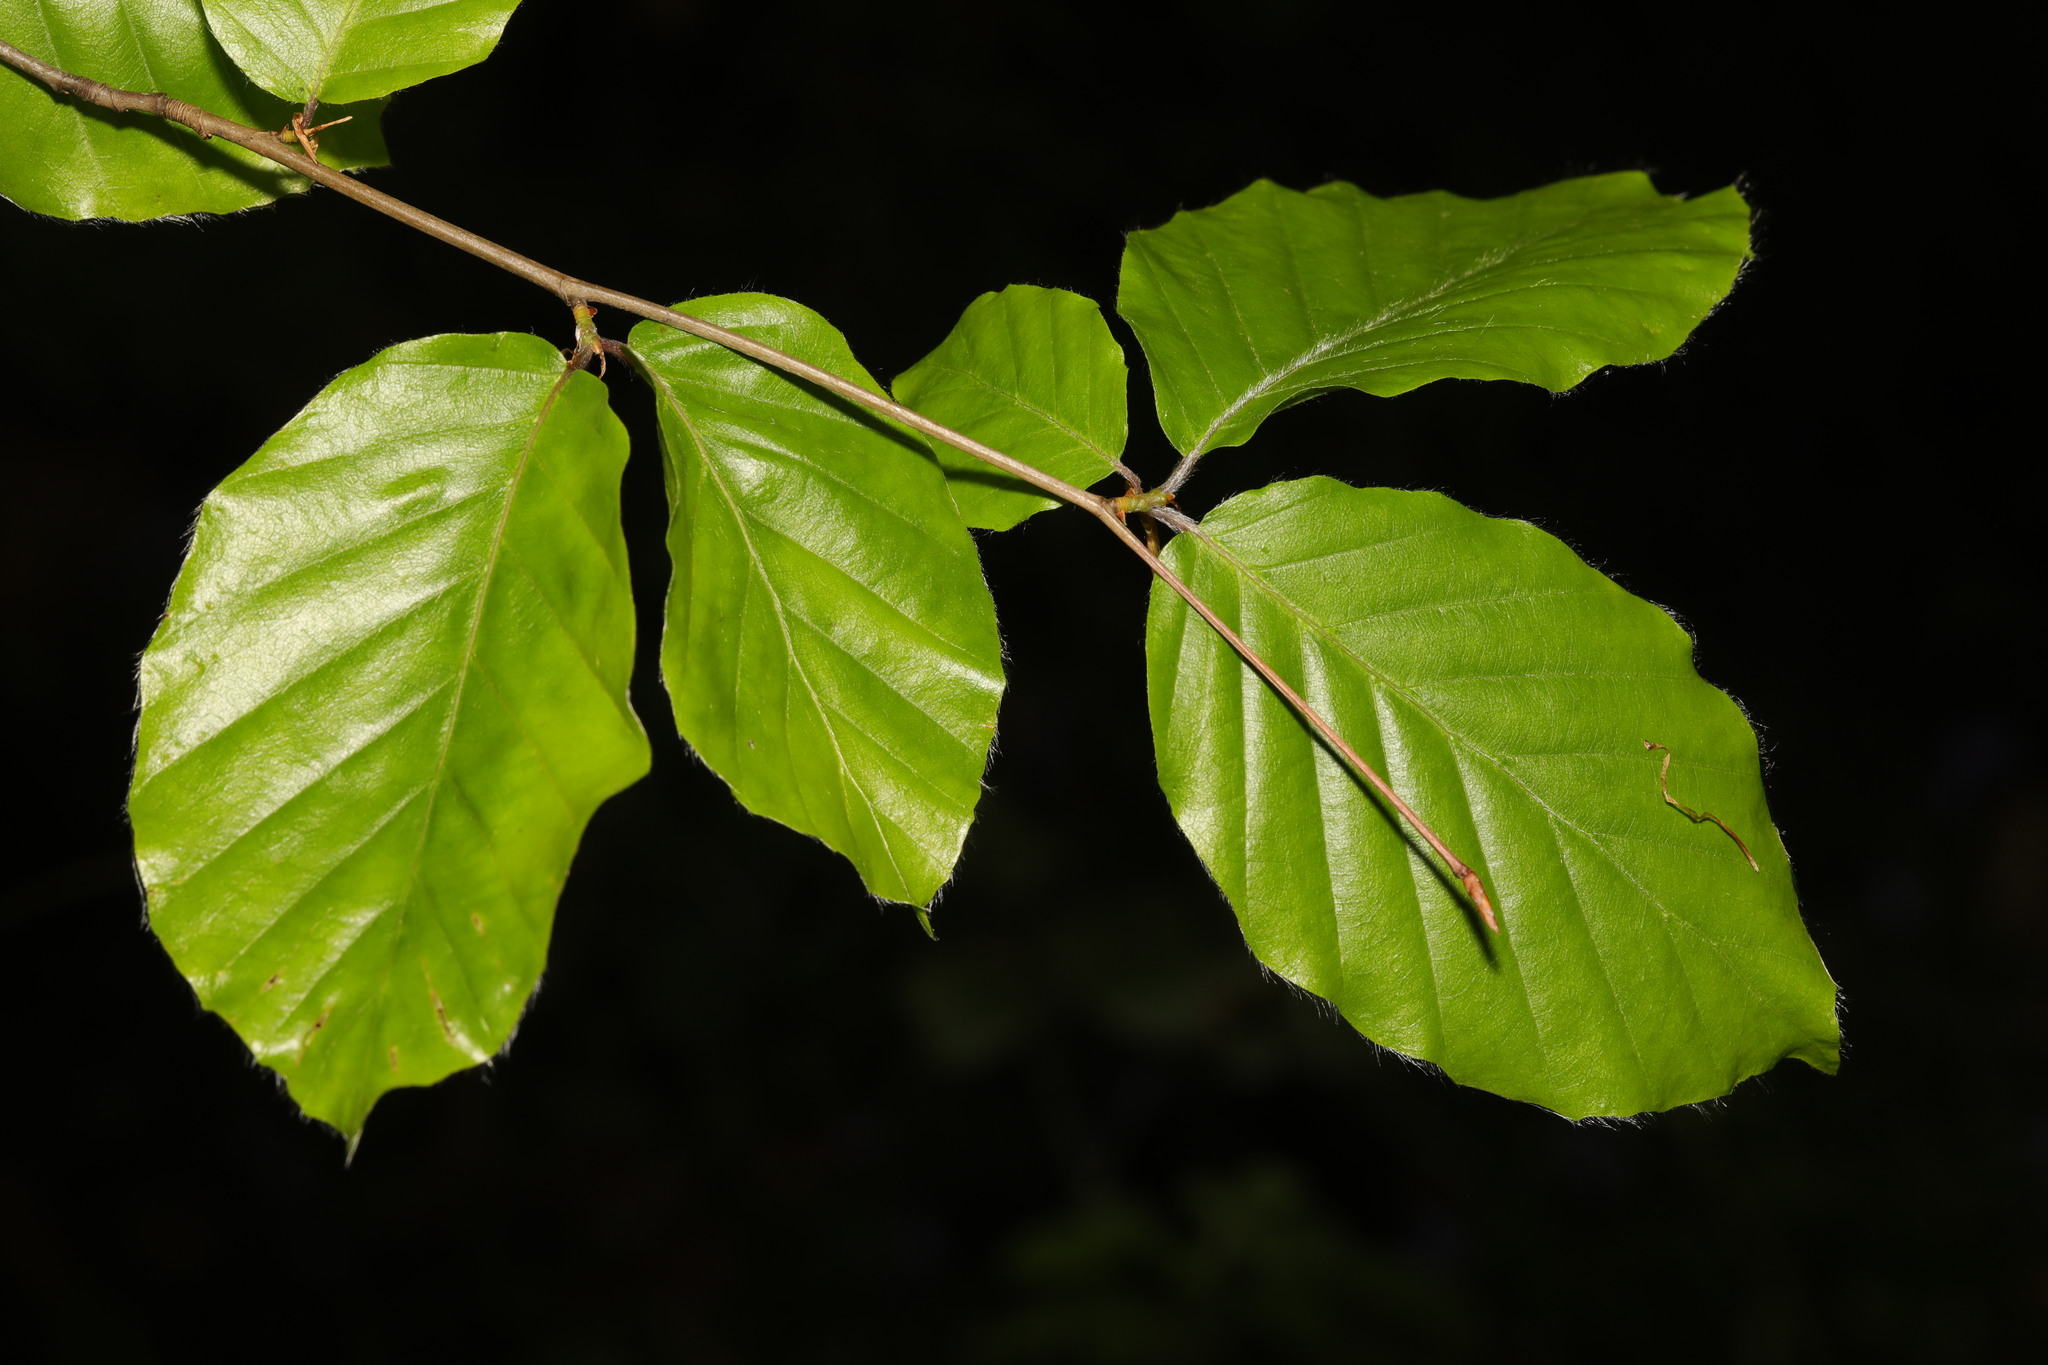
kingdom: Plantae
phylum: Tracheophyta
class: Magnoliopsida
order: Fagales
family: Fagaceae
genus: Fagus
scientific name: Fagus sylvatica
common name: Beech
